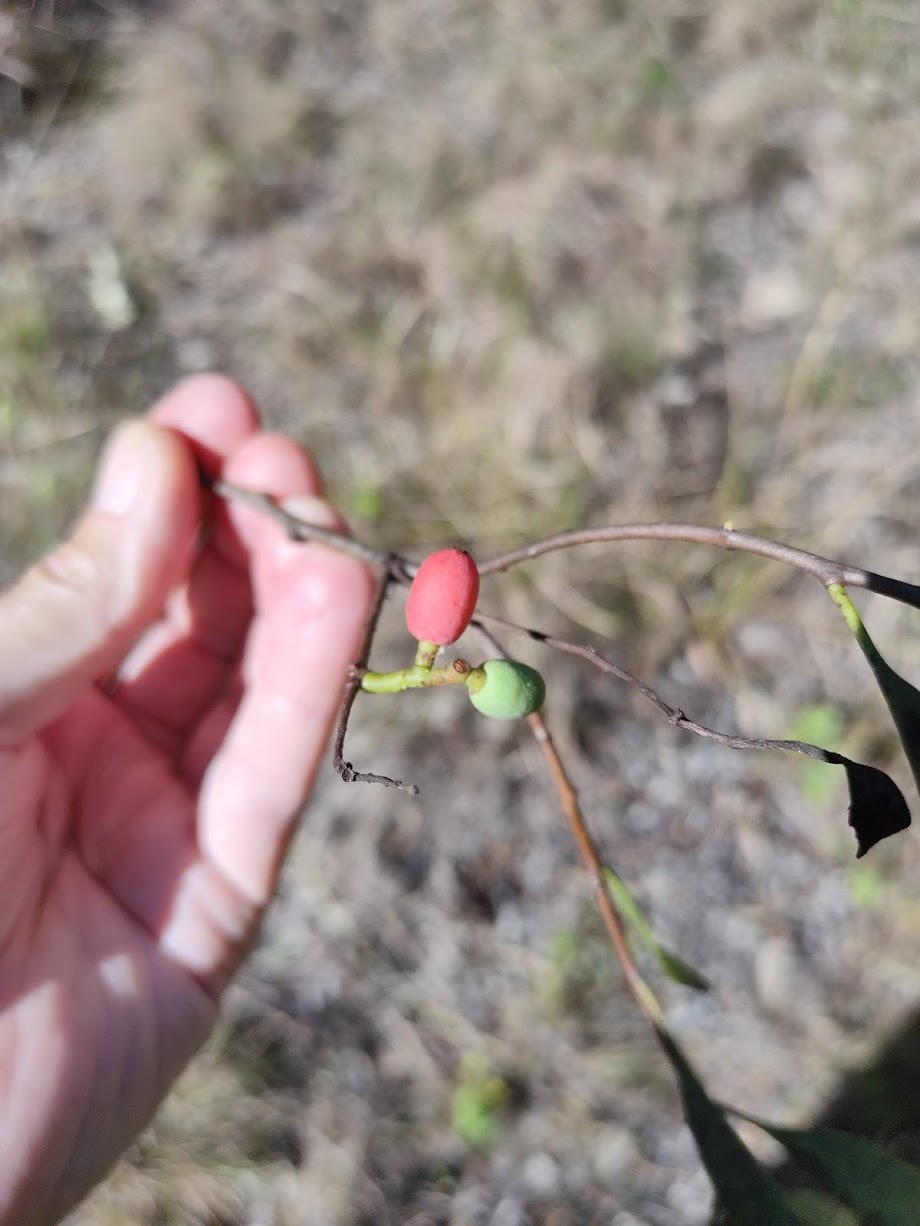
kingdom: Plantae
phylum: Tracheophyta
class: Magnoliopsida
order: Santalales
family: Loranthaceae
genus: Dendrophthoe
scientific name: Dendrophthoe glabrescens
